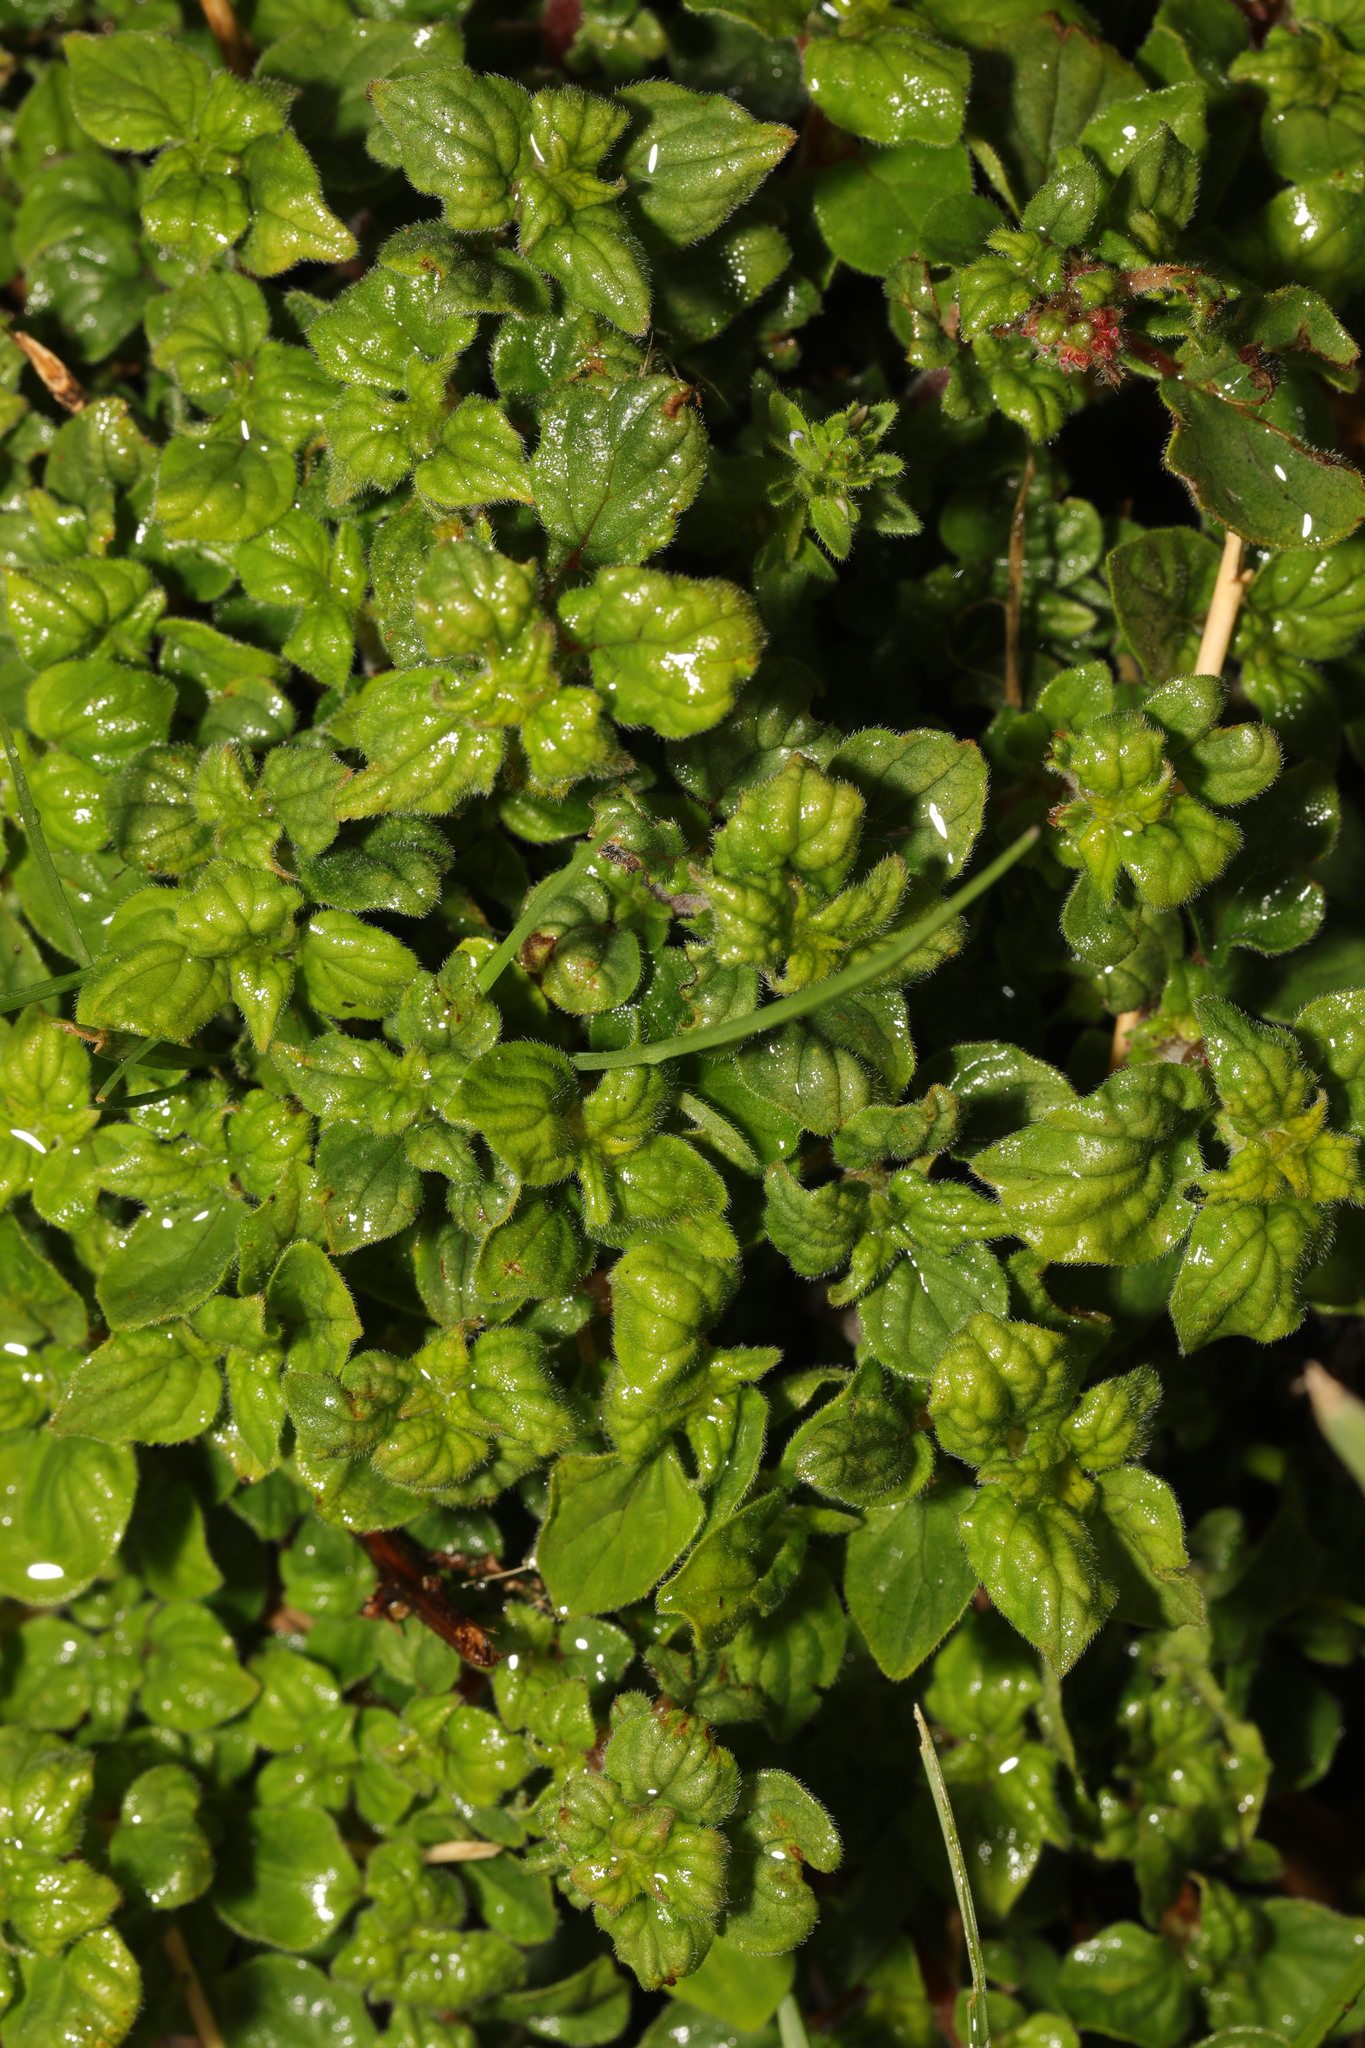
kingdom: Plantae
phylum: Tracheophyta
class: Magnoliopsida
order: Lamiales
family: Lamiaceae
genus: Origanum
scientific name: Origanum vulgare
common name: Wild marjoram
